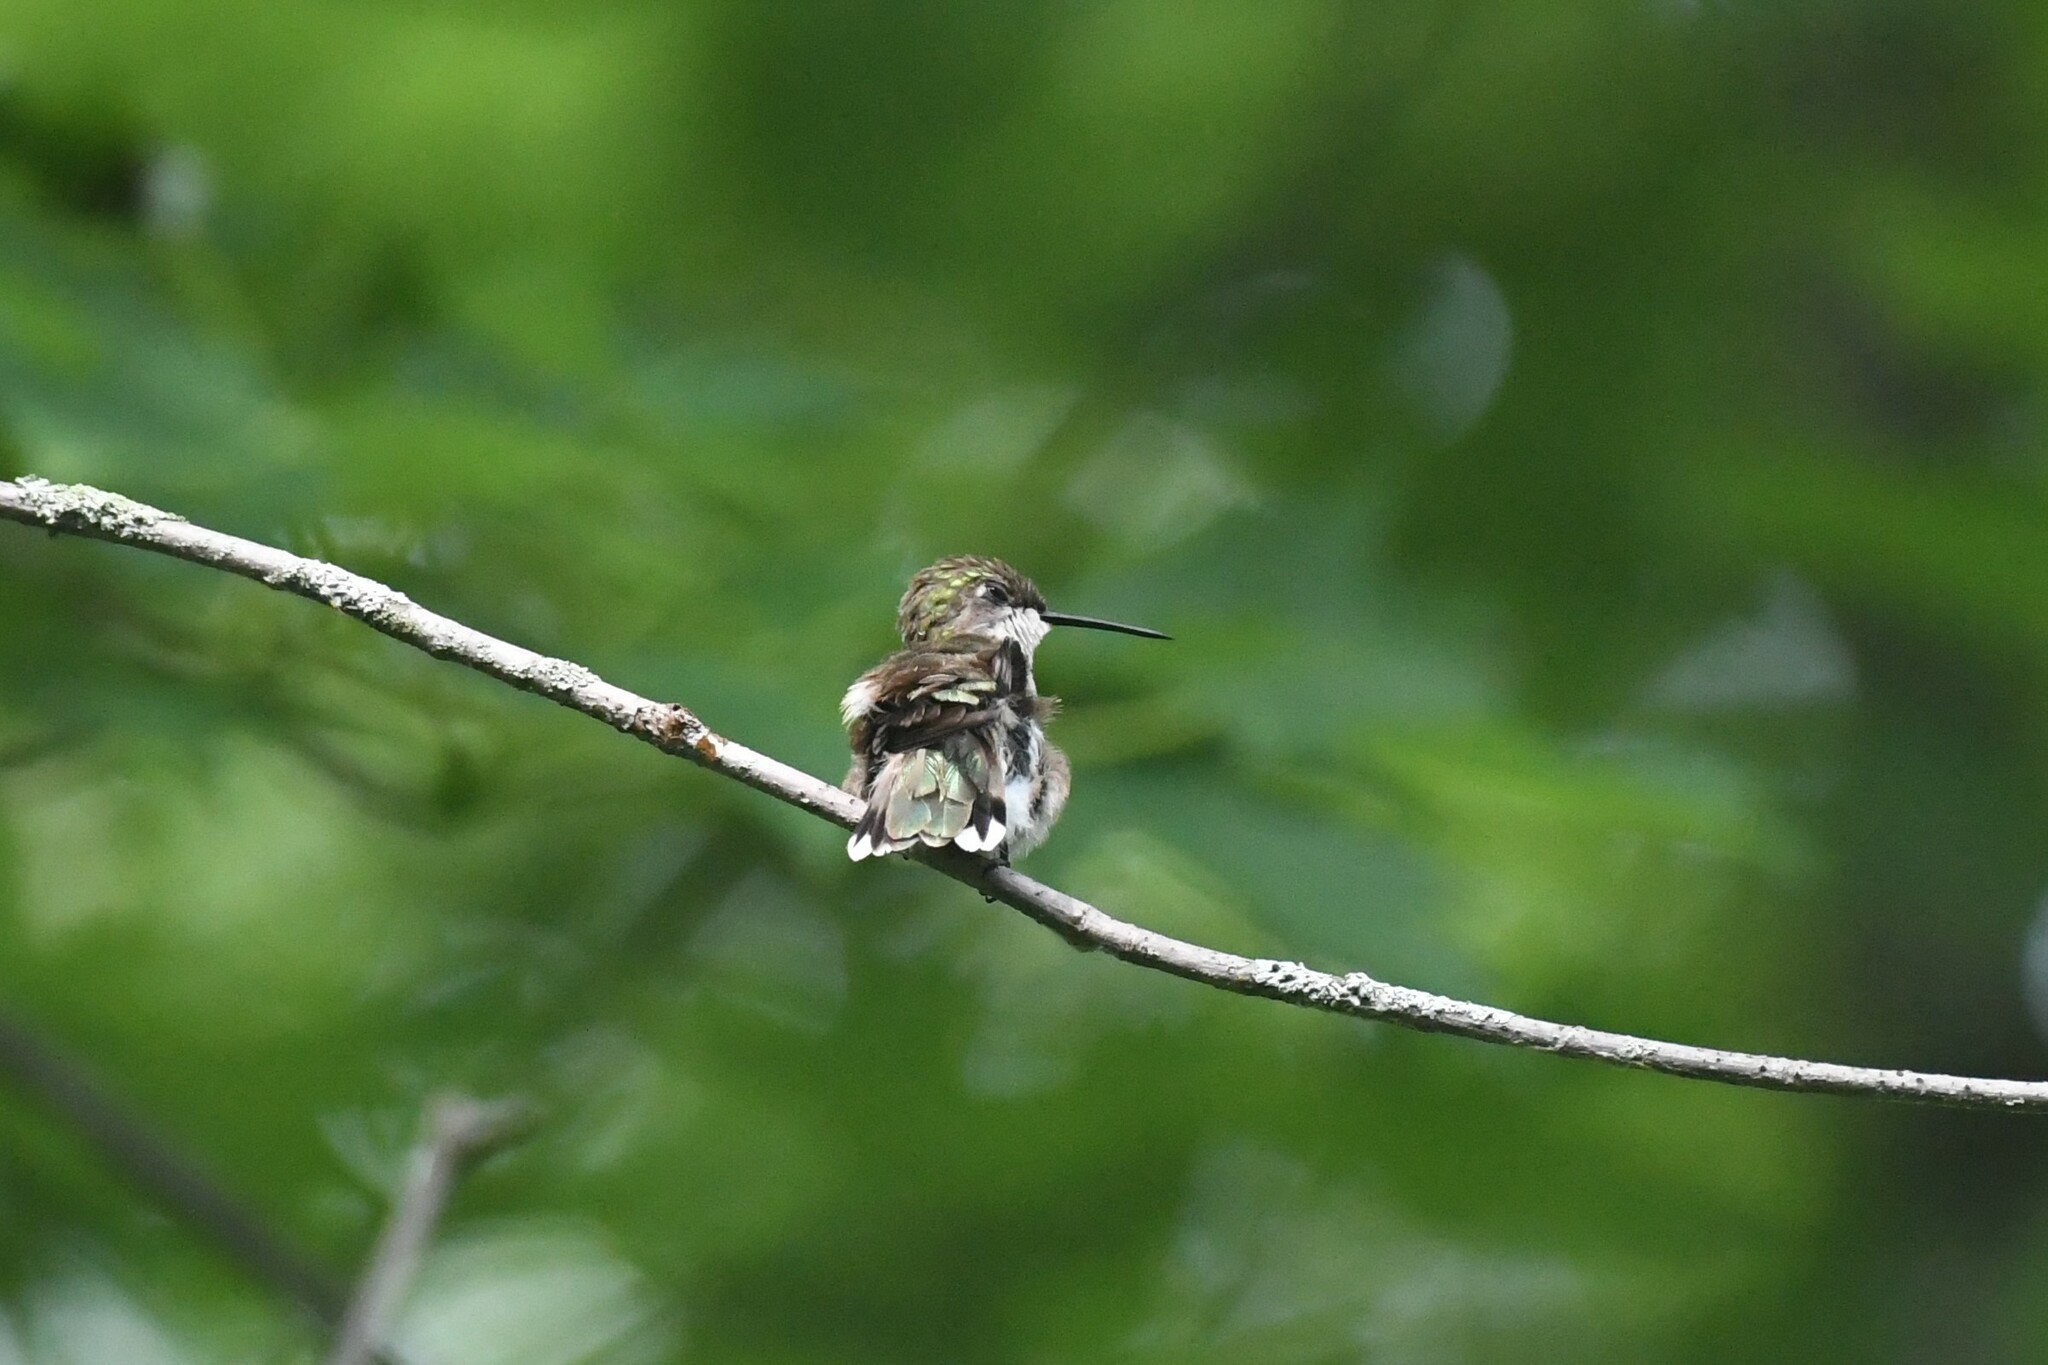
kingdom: Animalia
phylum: Chordata
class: Aves
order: Apodiformes
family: Trochilidae
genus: Archilochus
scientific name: Archilochus colubris
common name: Ruby-throated hummingbird
